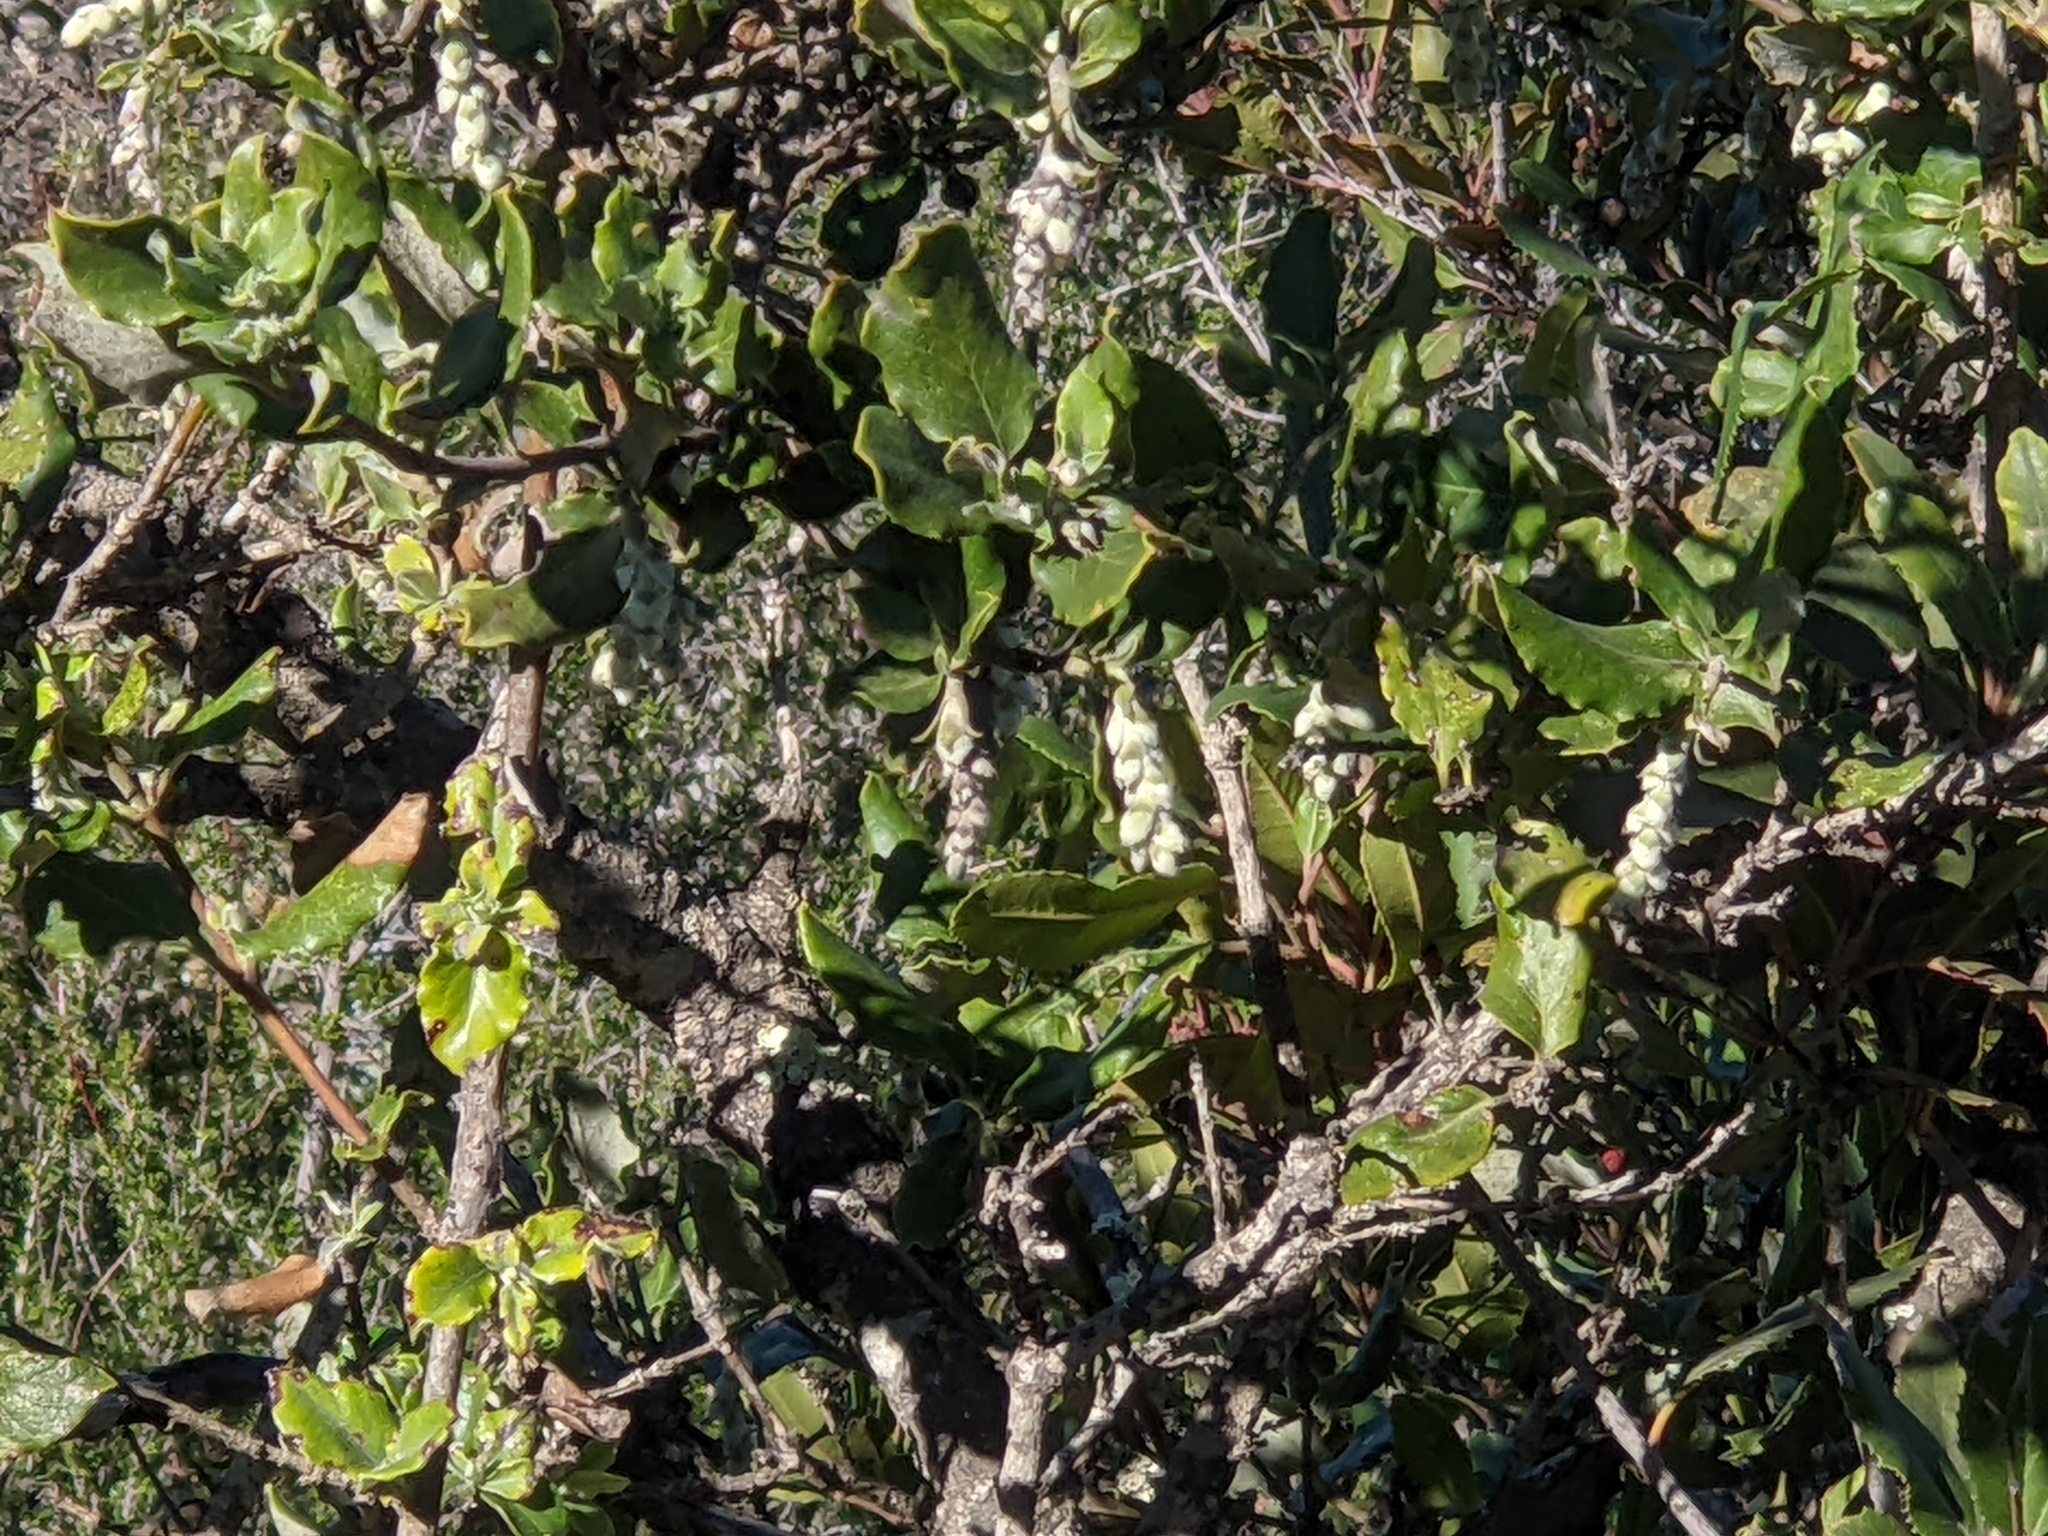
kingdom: Plantae
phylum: Tracheophyta
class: Magnoliopsida
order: Garryales
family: Garryaceae
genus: Garrya
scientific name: Garrya elliptica
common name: Silk-tassel
